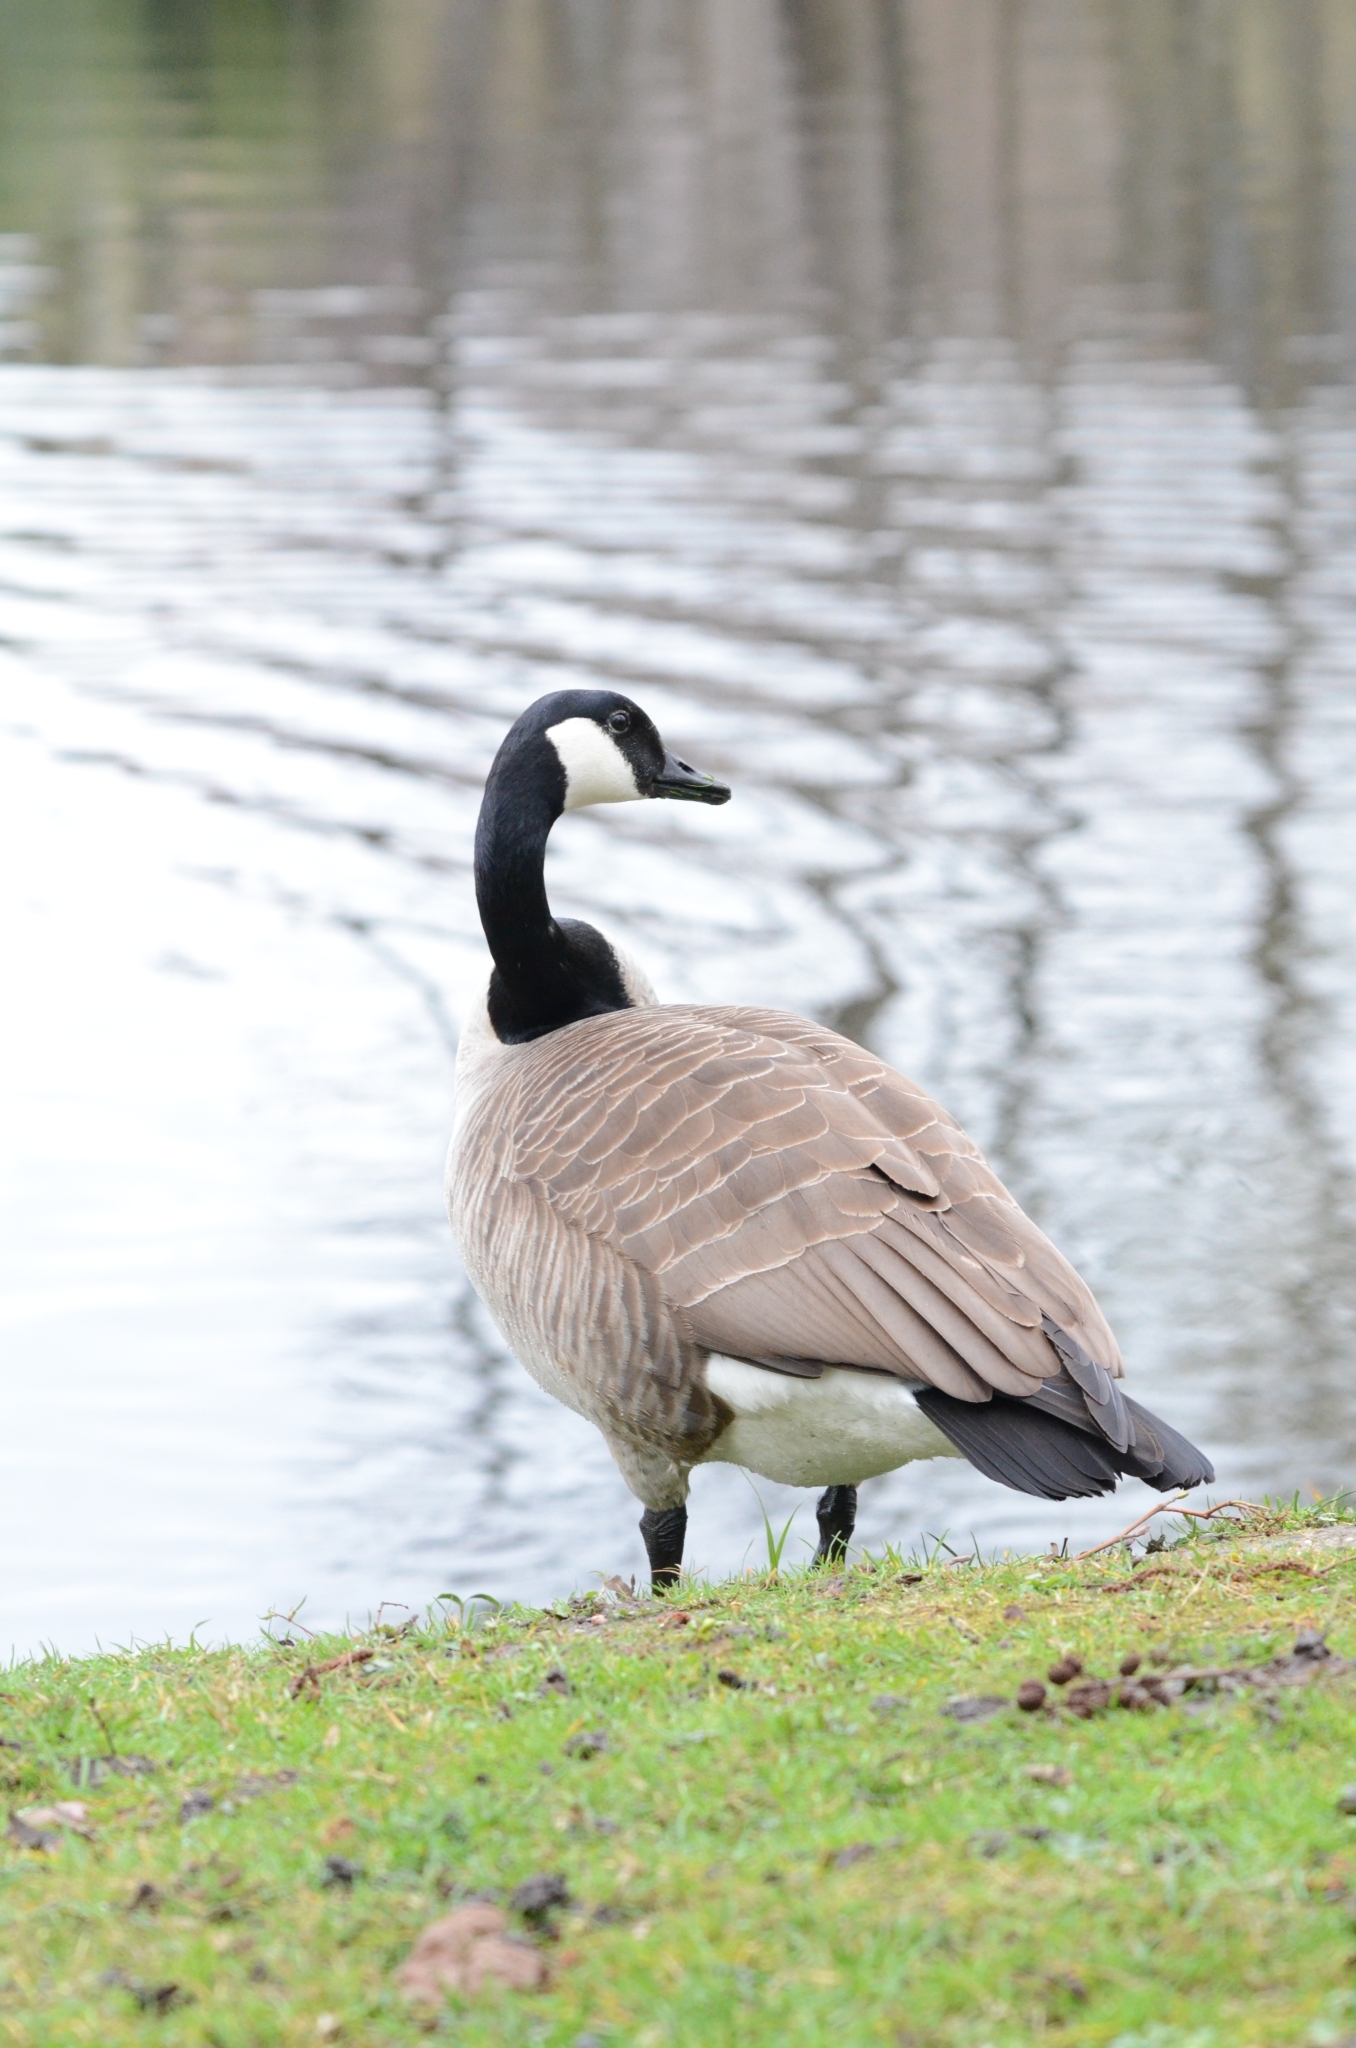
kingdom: Animalia
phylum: Chordata
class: Aves
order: Anseriformes
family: Anatidae
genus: Branta
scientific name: Branta canadensis
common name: Canada goose
